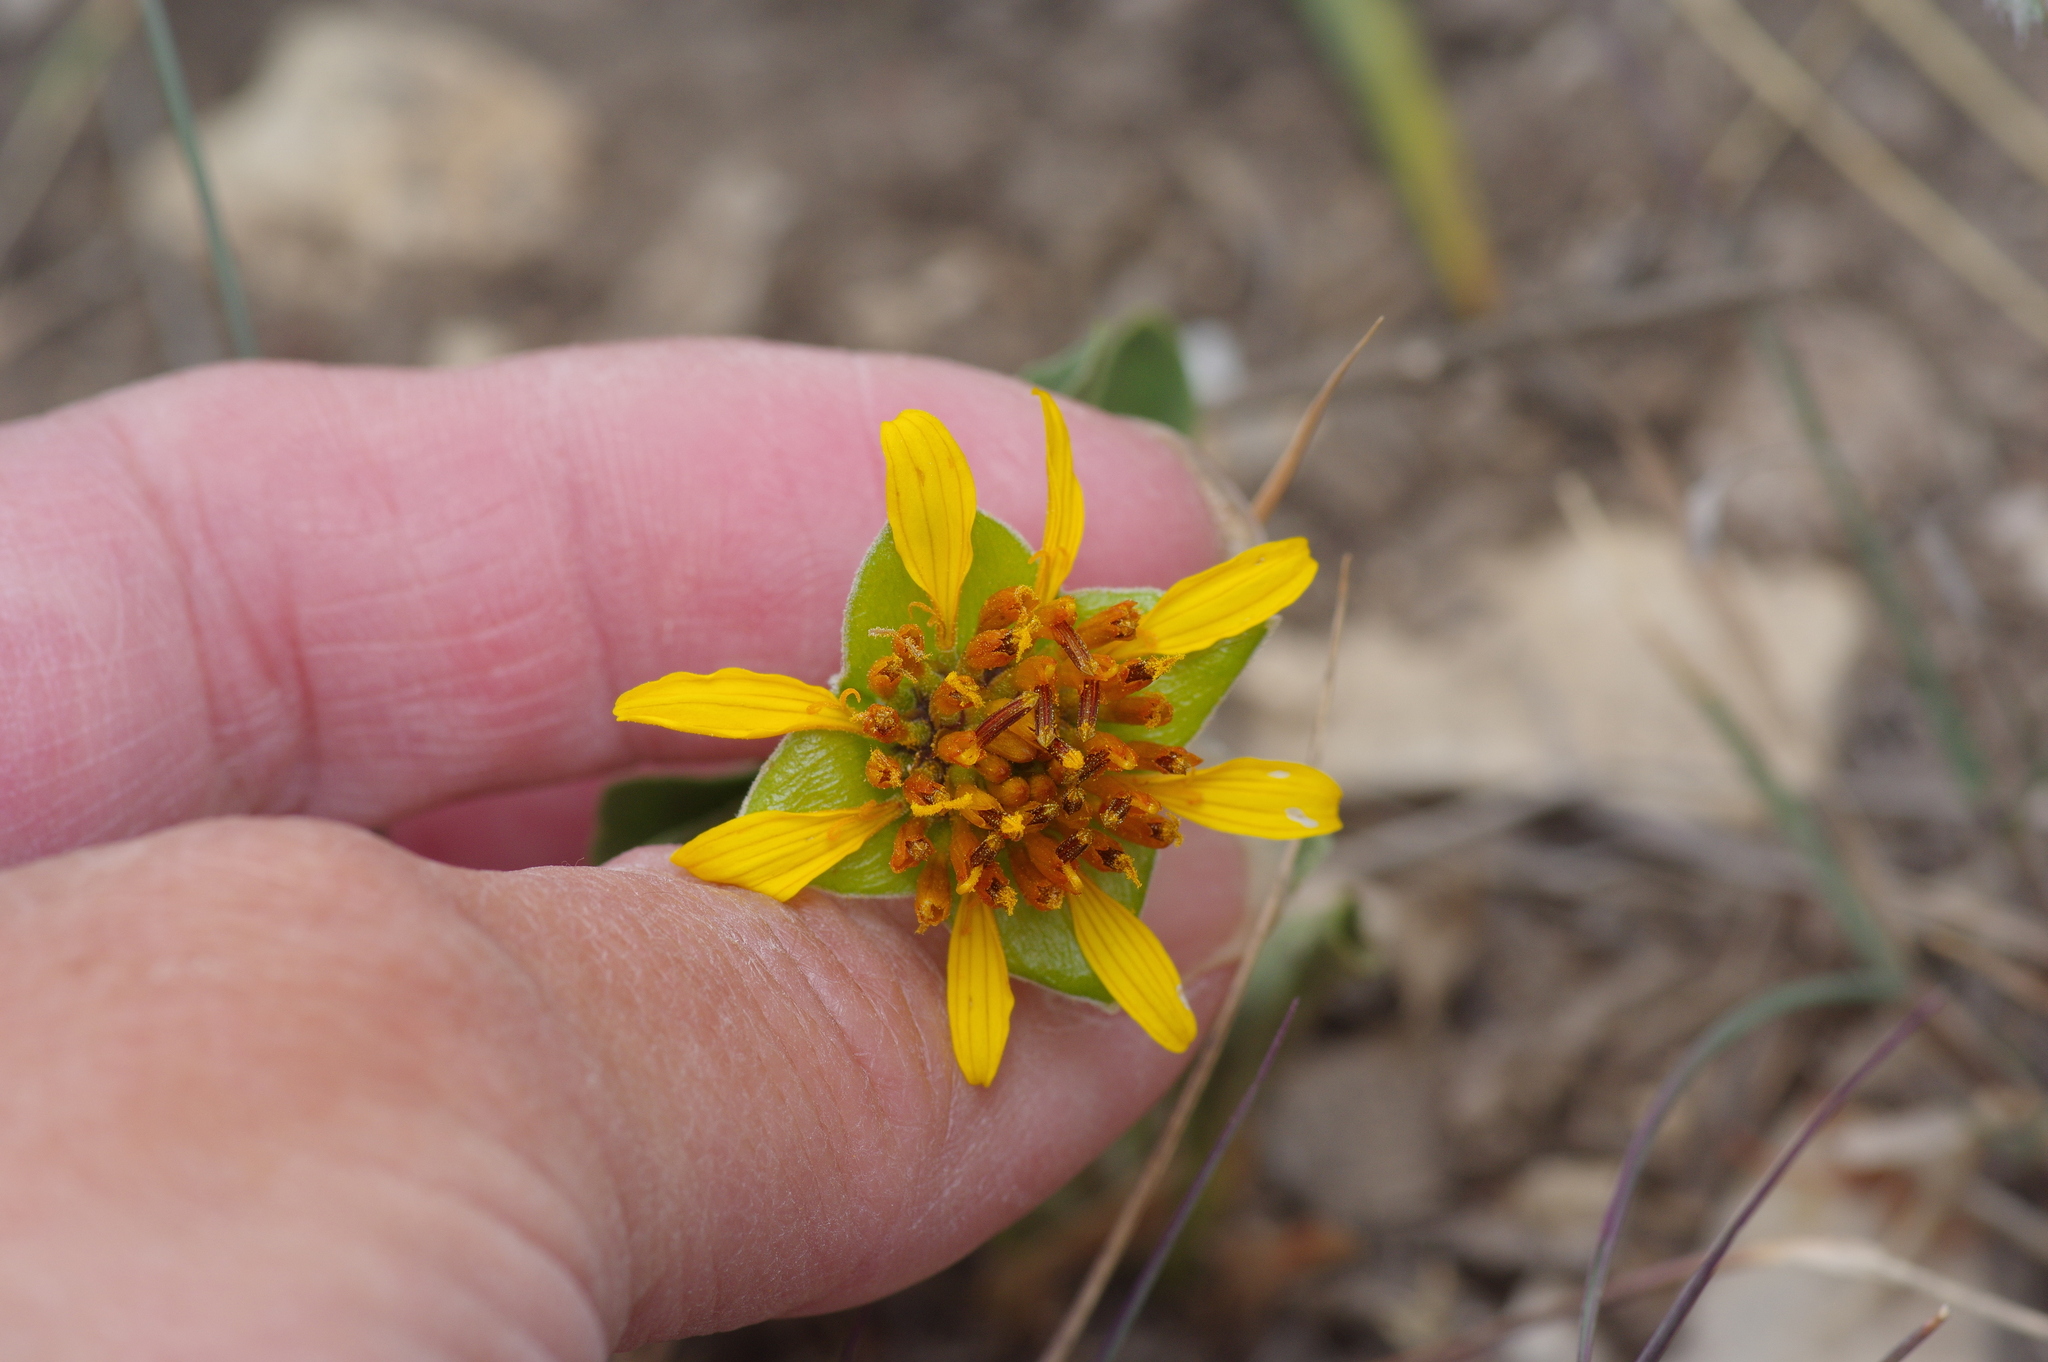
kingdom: Plantae
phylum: Tracheophyta
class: Magnoliopsida
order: Asterales
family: Asteraceae
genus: Tetragonotheca
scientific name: Tetragonotheca texana
